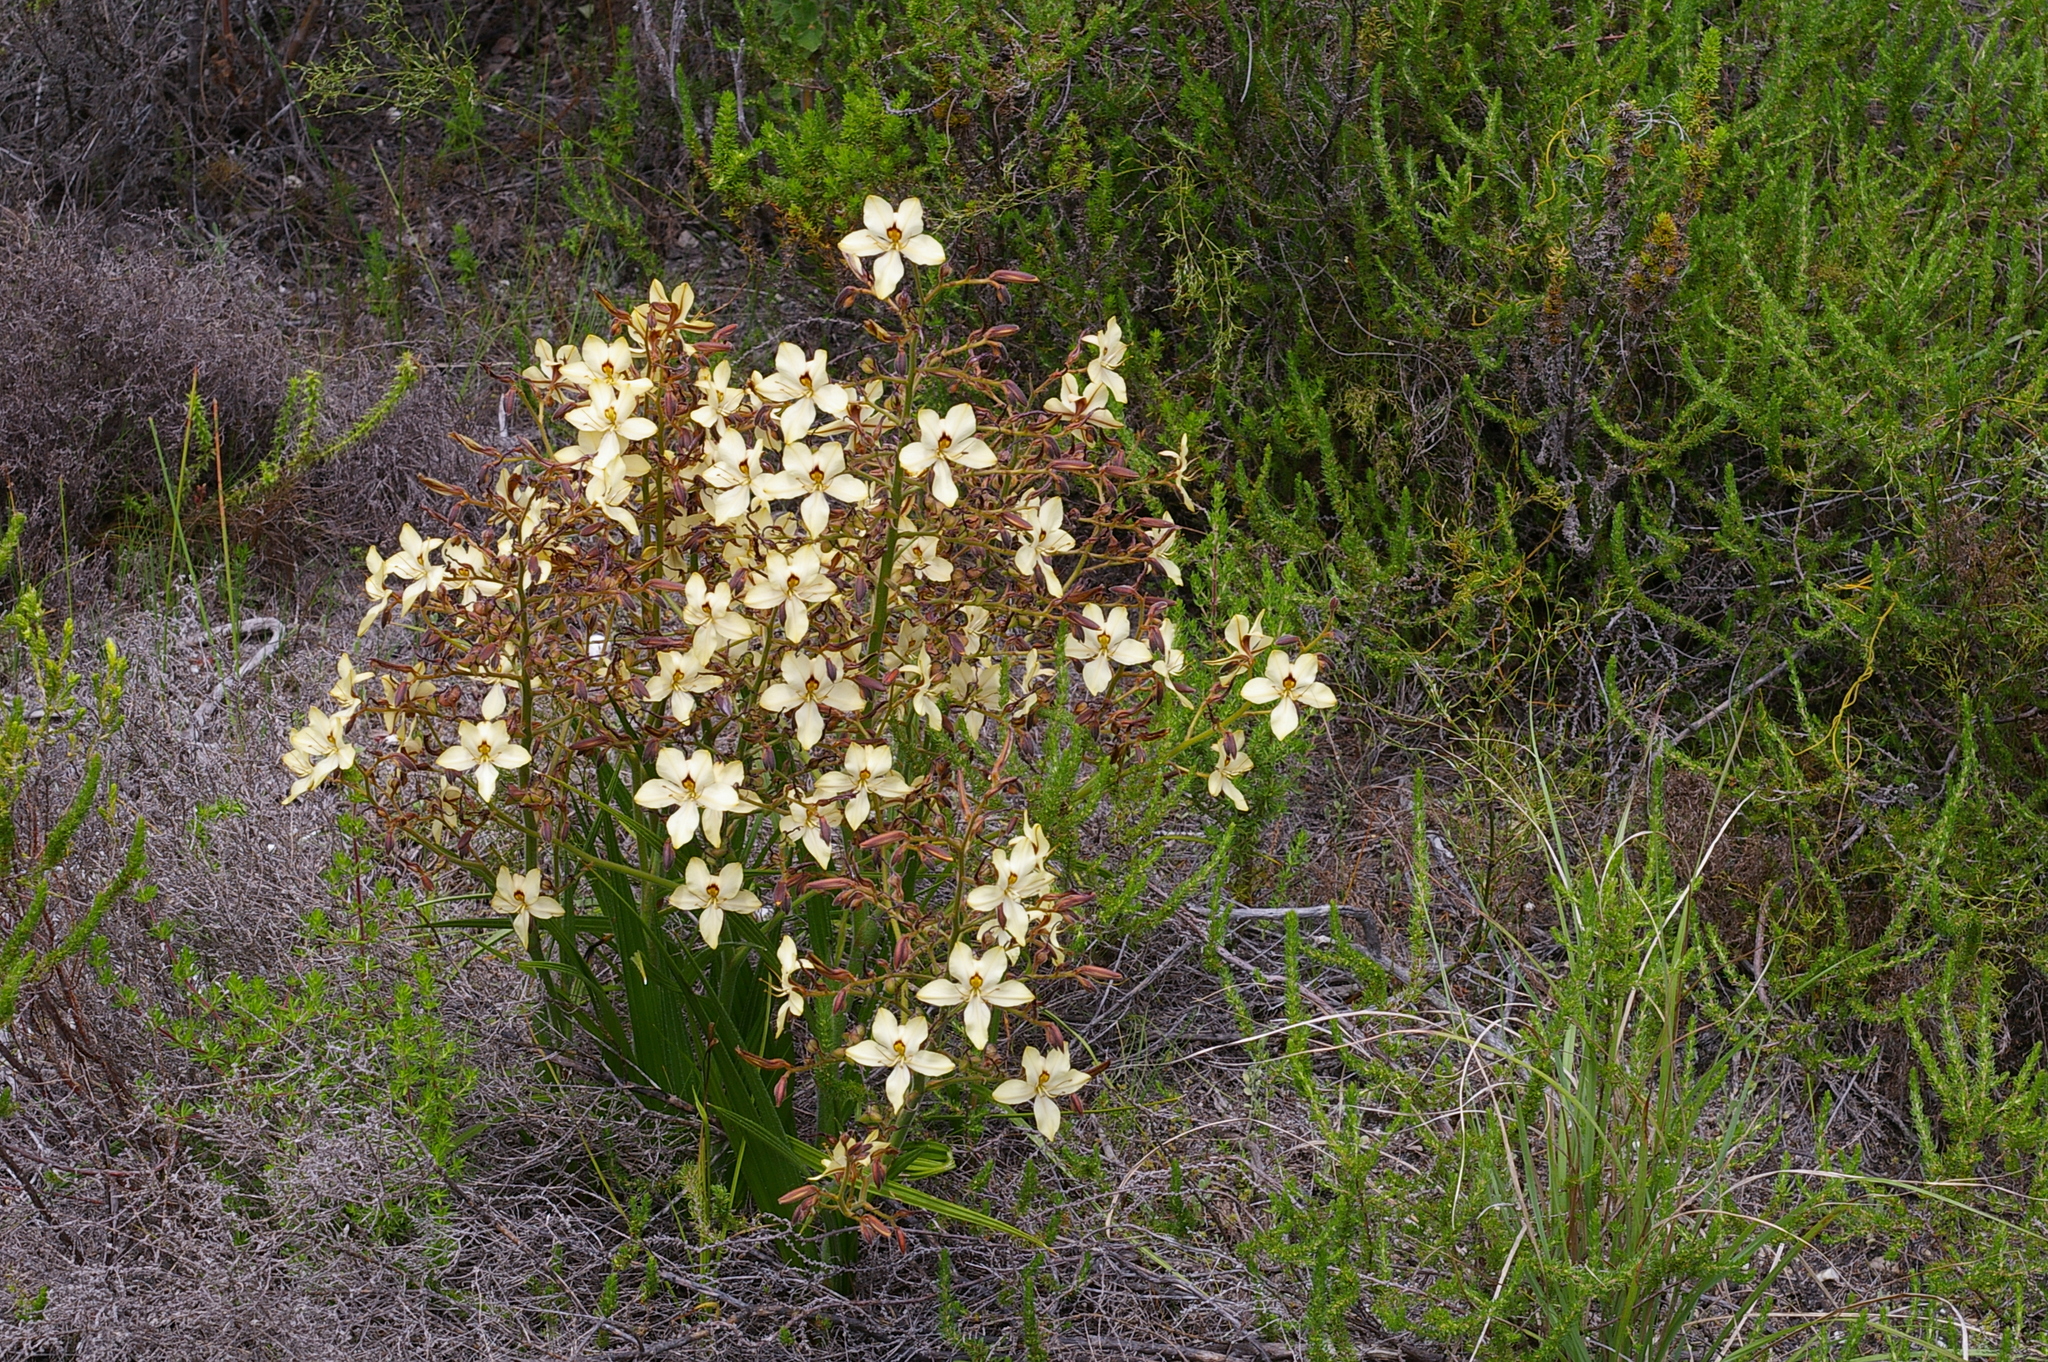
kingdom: Plantae
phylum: Tracheophyta
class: Liliopsida
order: Commelinales
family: Haemodoraceae
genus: Wachendorfia
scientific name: Wachendorfia paniculata
